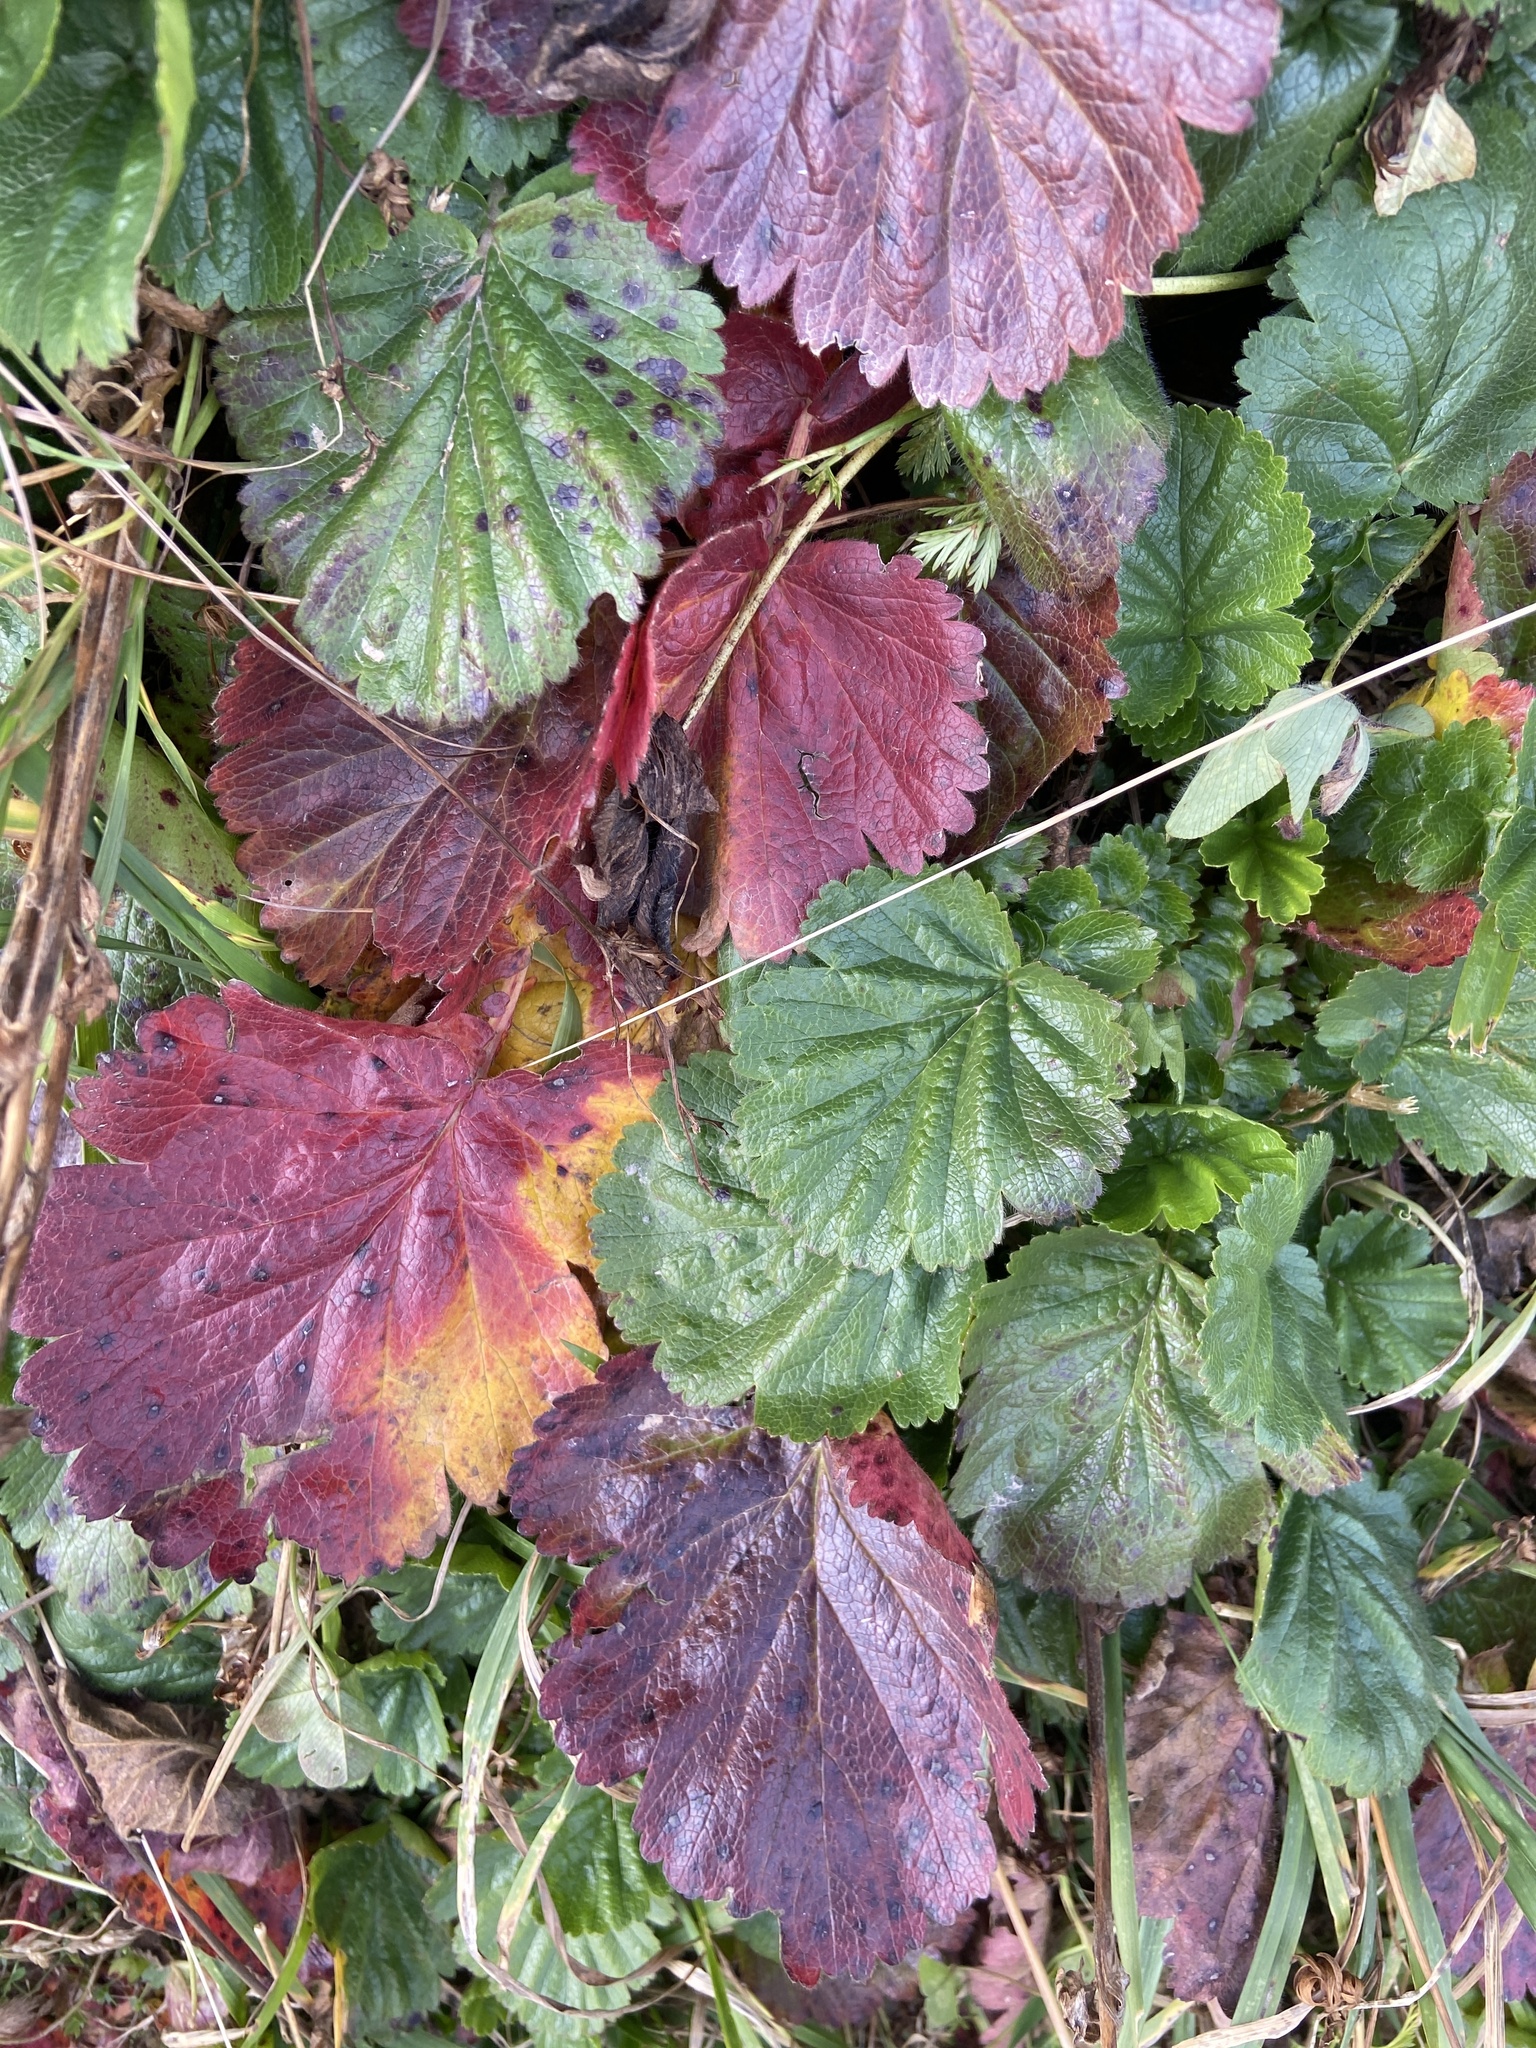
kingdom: Plantae
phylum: Tracheophyta
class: Magnoliopsida
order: Rosales
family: Rosaceae
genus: Geum
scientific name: Geum montanum
